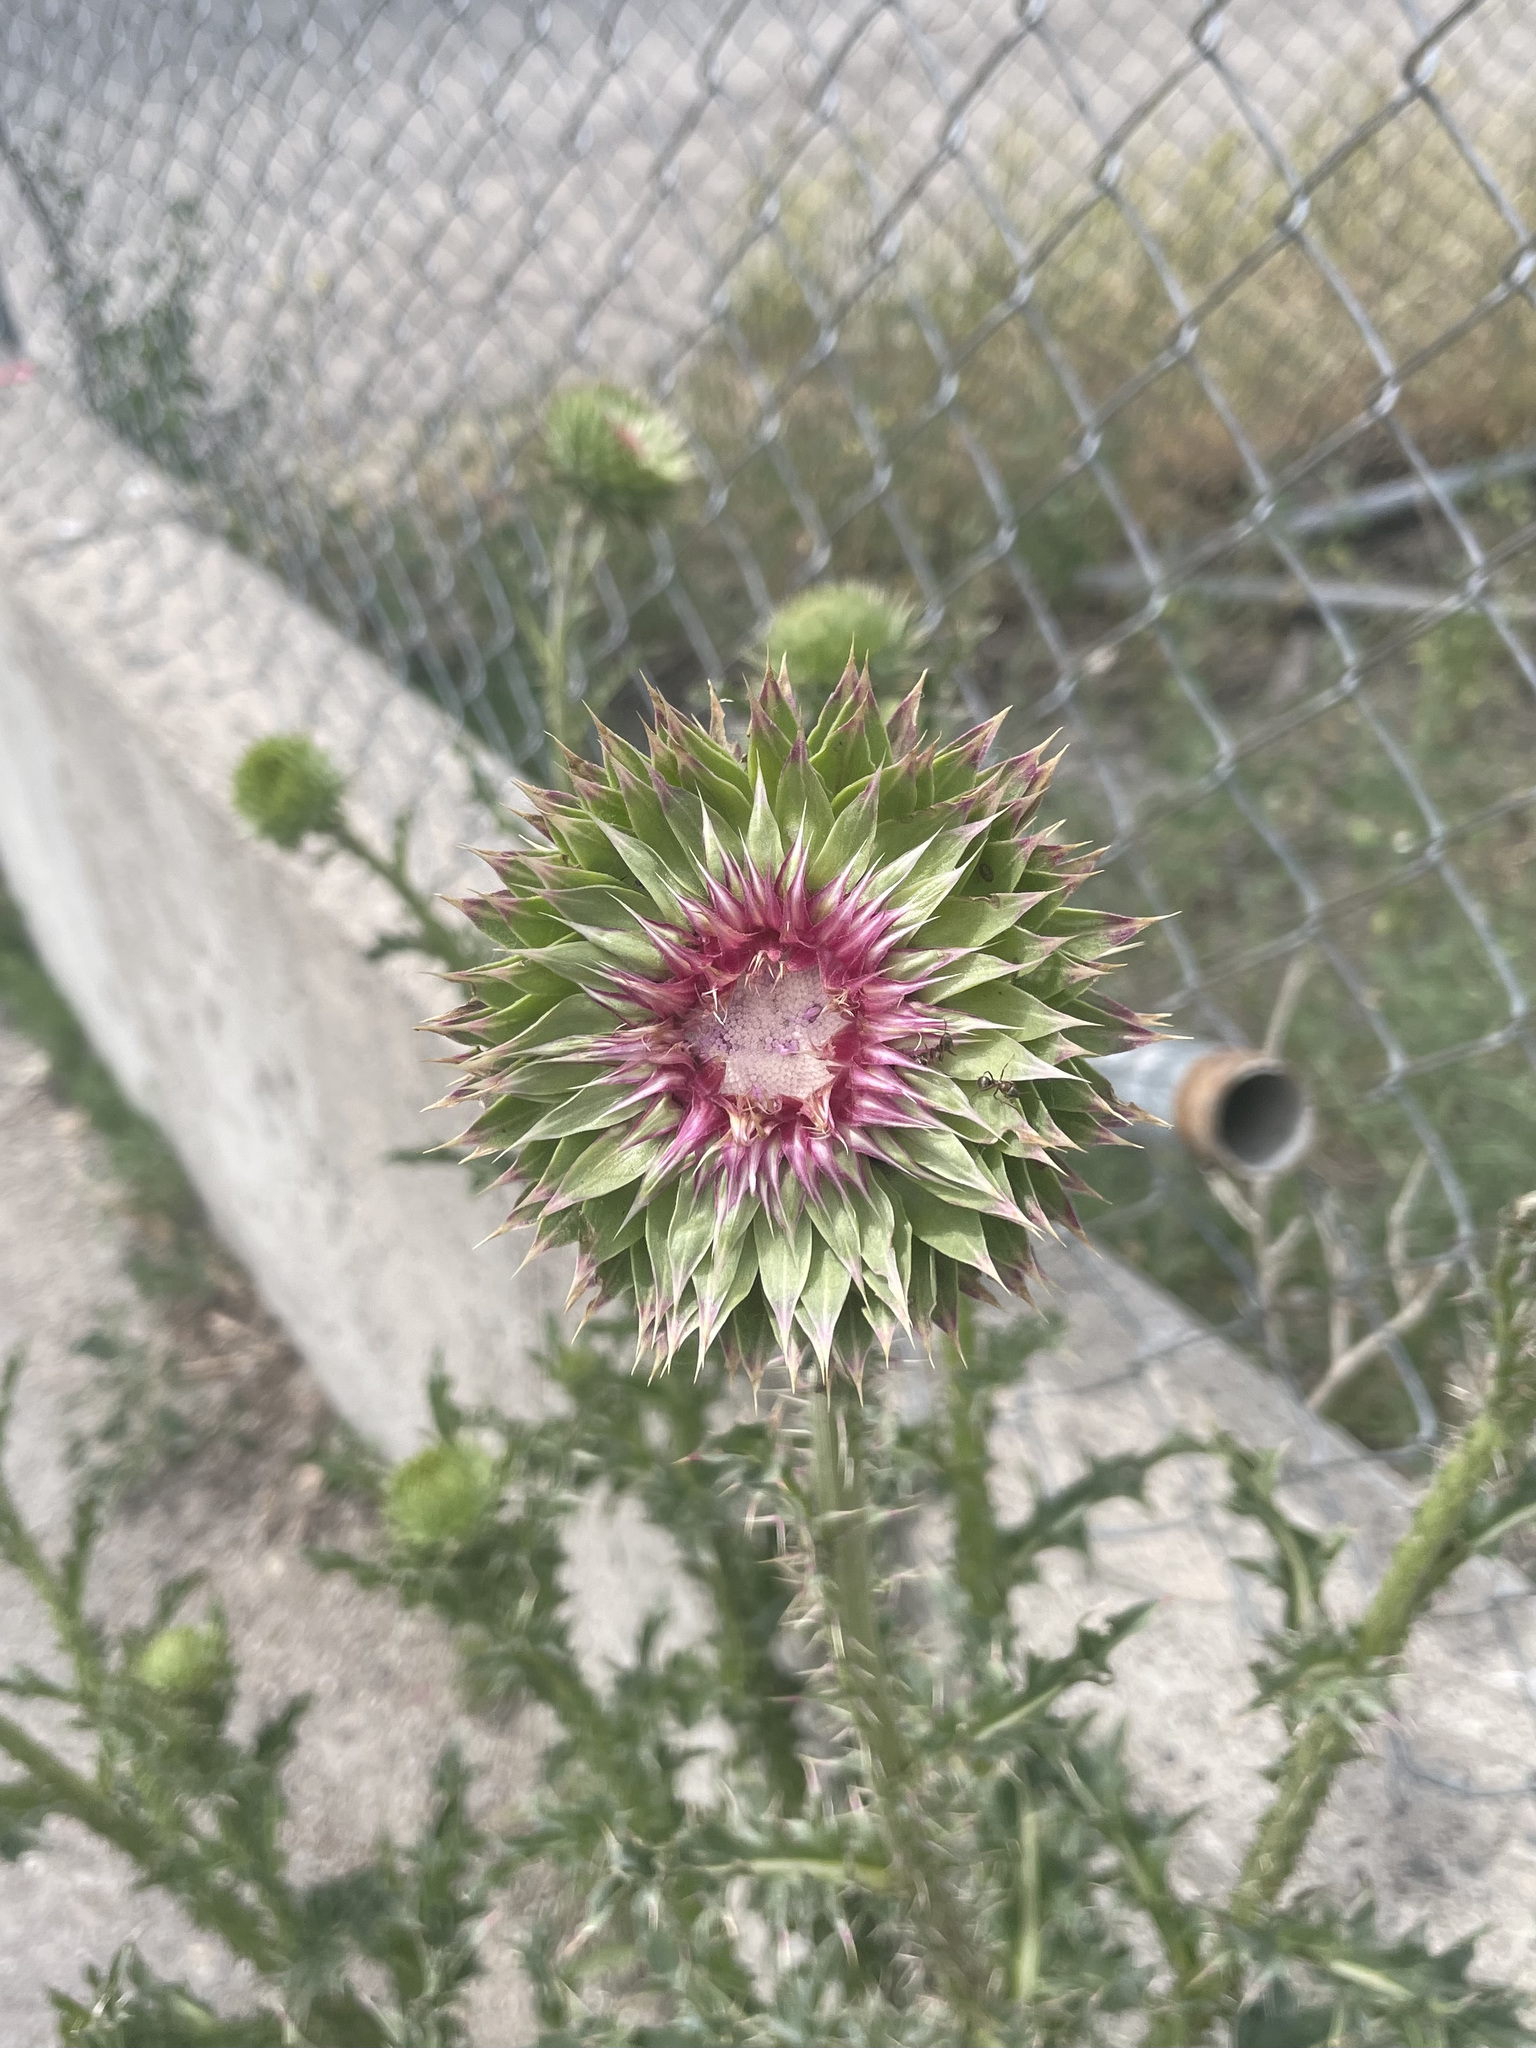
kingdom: Plantae
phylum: Tracheophyta
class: Magnoliopsida
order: Asterales
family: Asteraceae
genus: Carduus
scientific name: Carduus nutans
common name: Musk thistle
